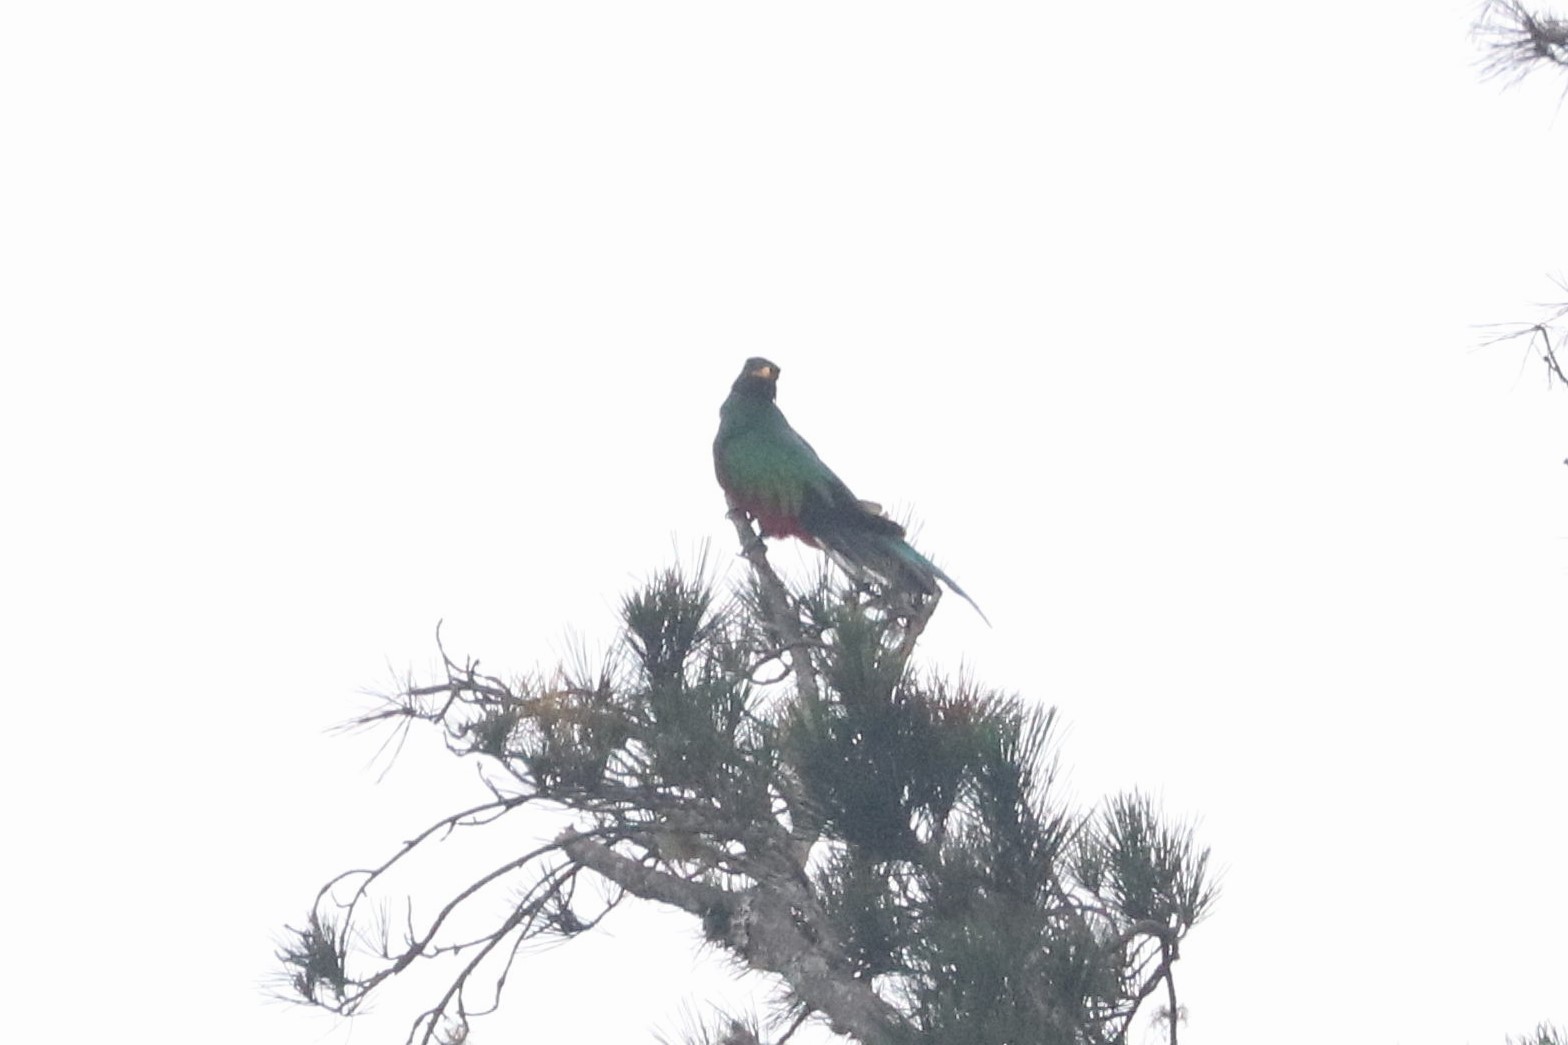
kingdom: Animalia
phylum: Chordata
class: Aves
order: Trogoniformes
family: Trogonidae
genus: Pharomachrus
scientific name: Pharomachrus fulgidus
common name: White-tipped quetzal
